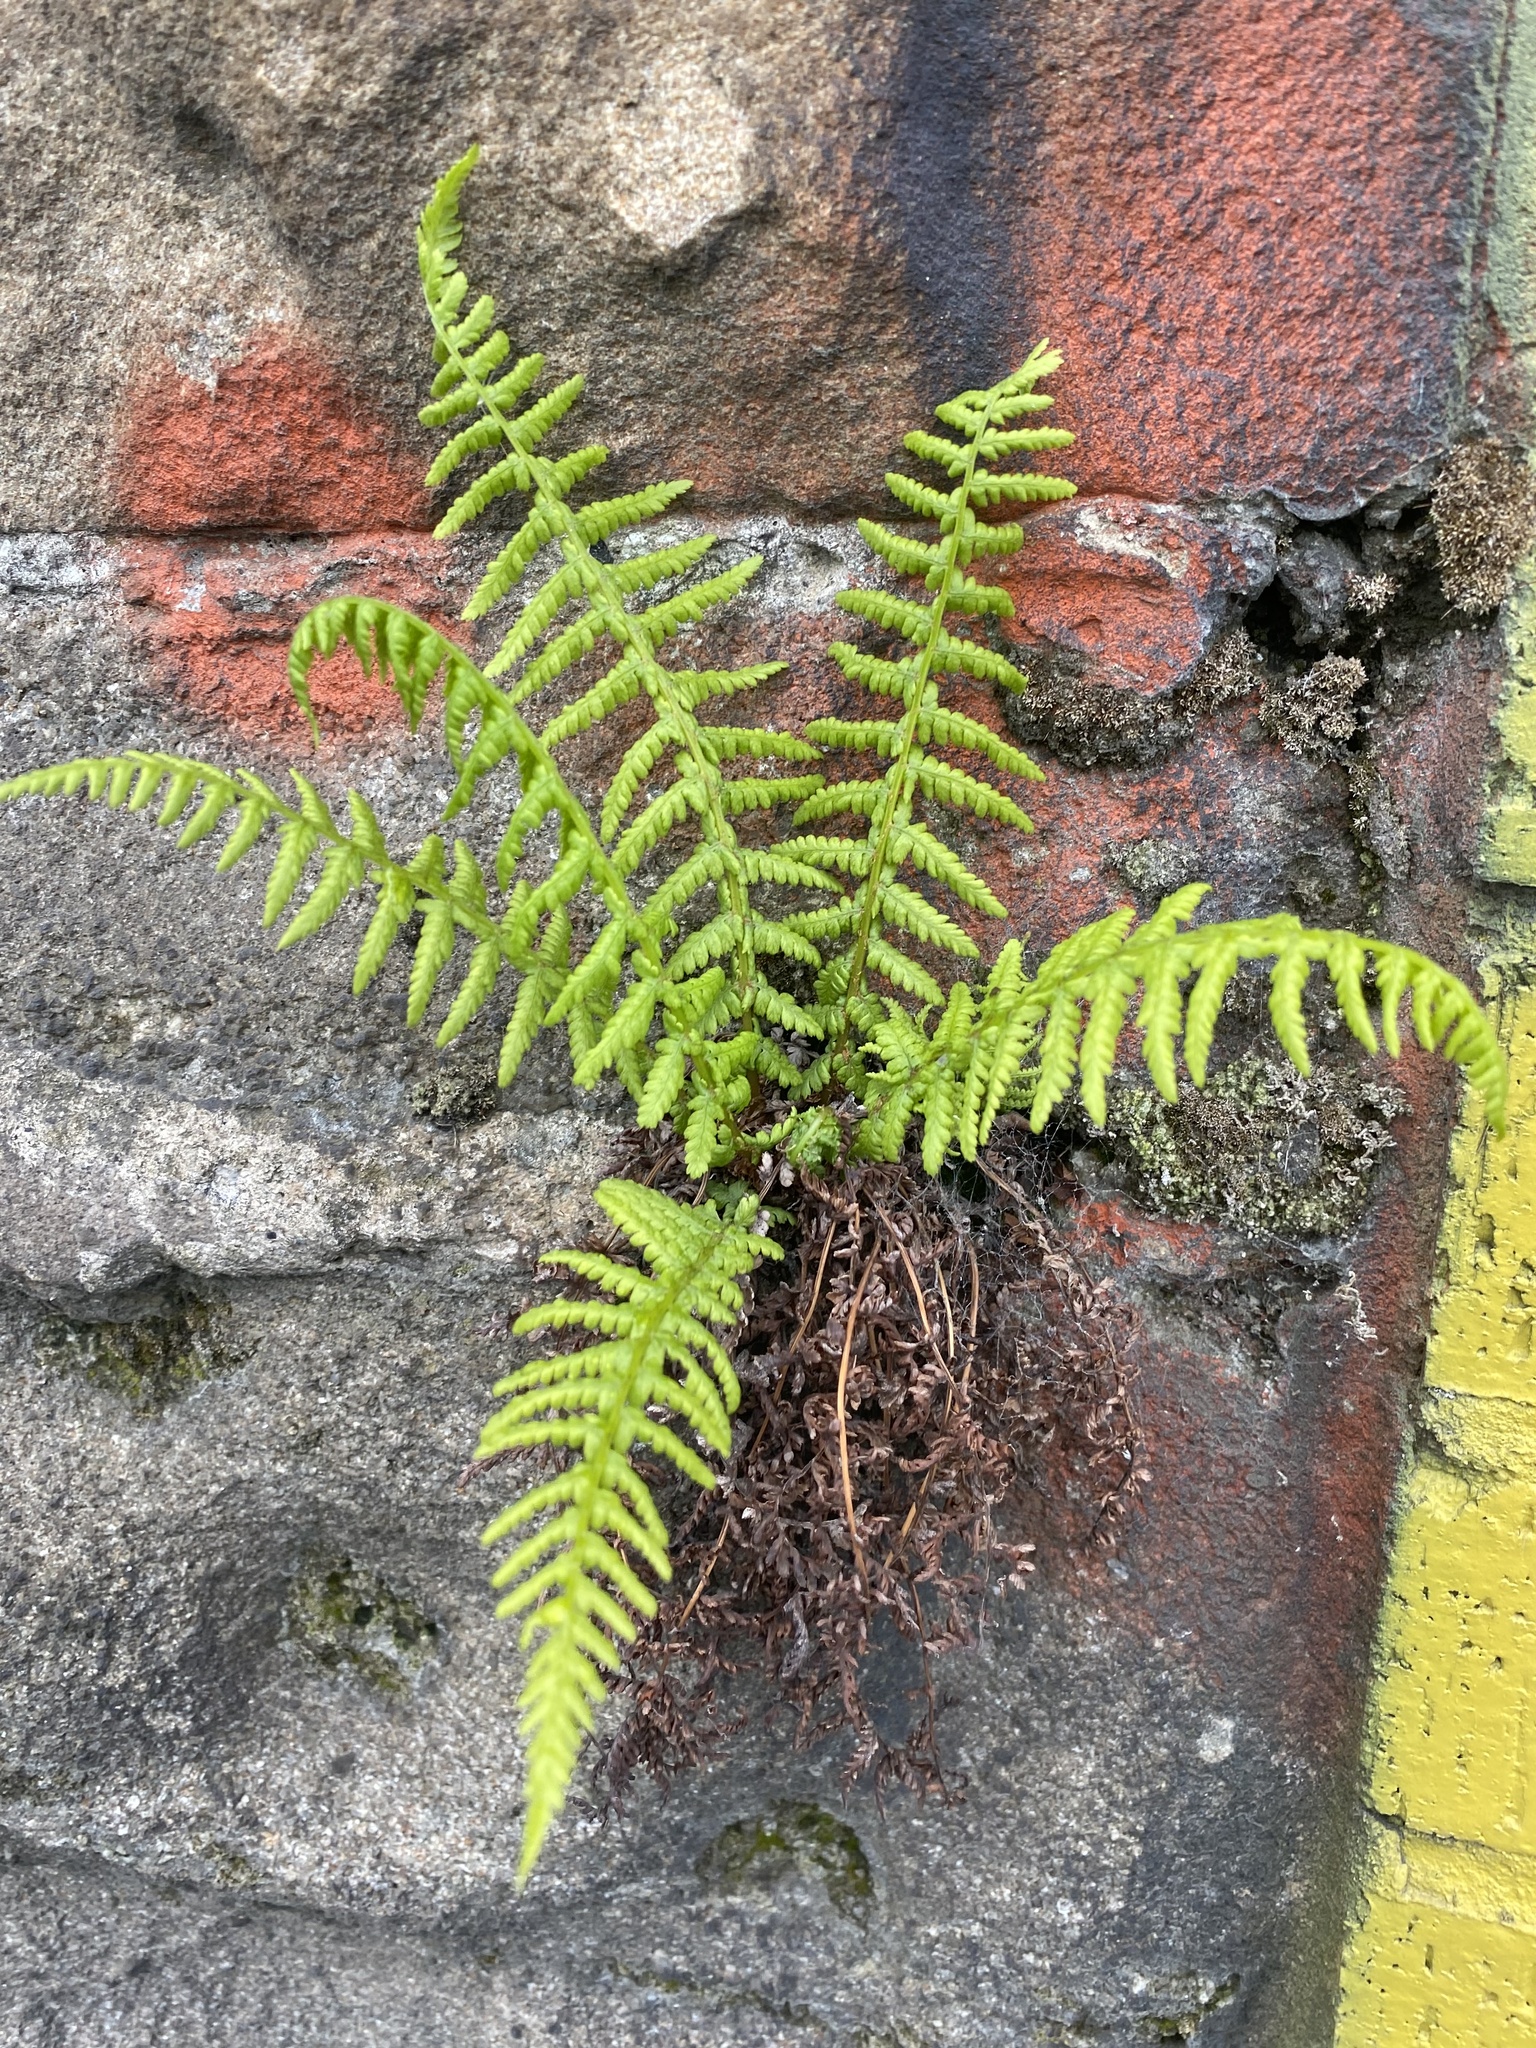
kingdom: Plantae
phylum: Tracheophyta
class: Polypodiopsida
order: Polypodiales
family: Athyriaceae
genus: Athyrium
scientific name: Athyrium filix-femina
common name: Lady fern
